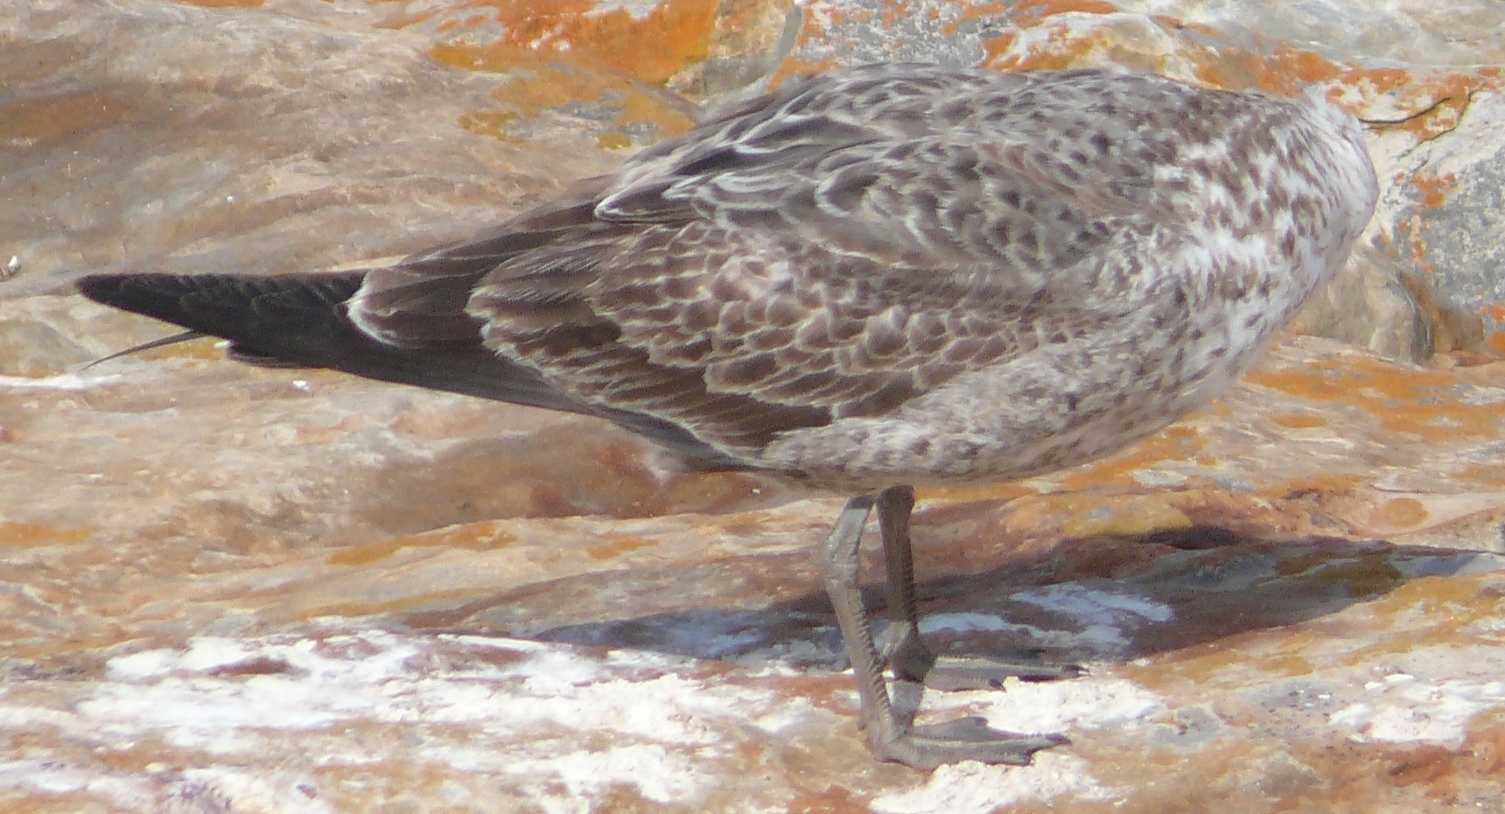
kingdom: Animalia
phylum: Chordata
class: Aves
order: Charadriiformes
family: Laridae
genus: Larus
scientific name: Larus dominicanus
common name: Kelp gull
